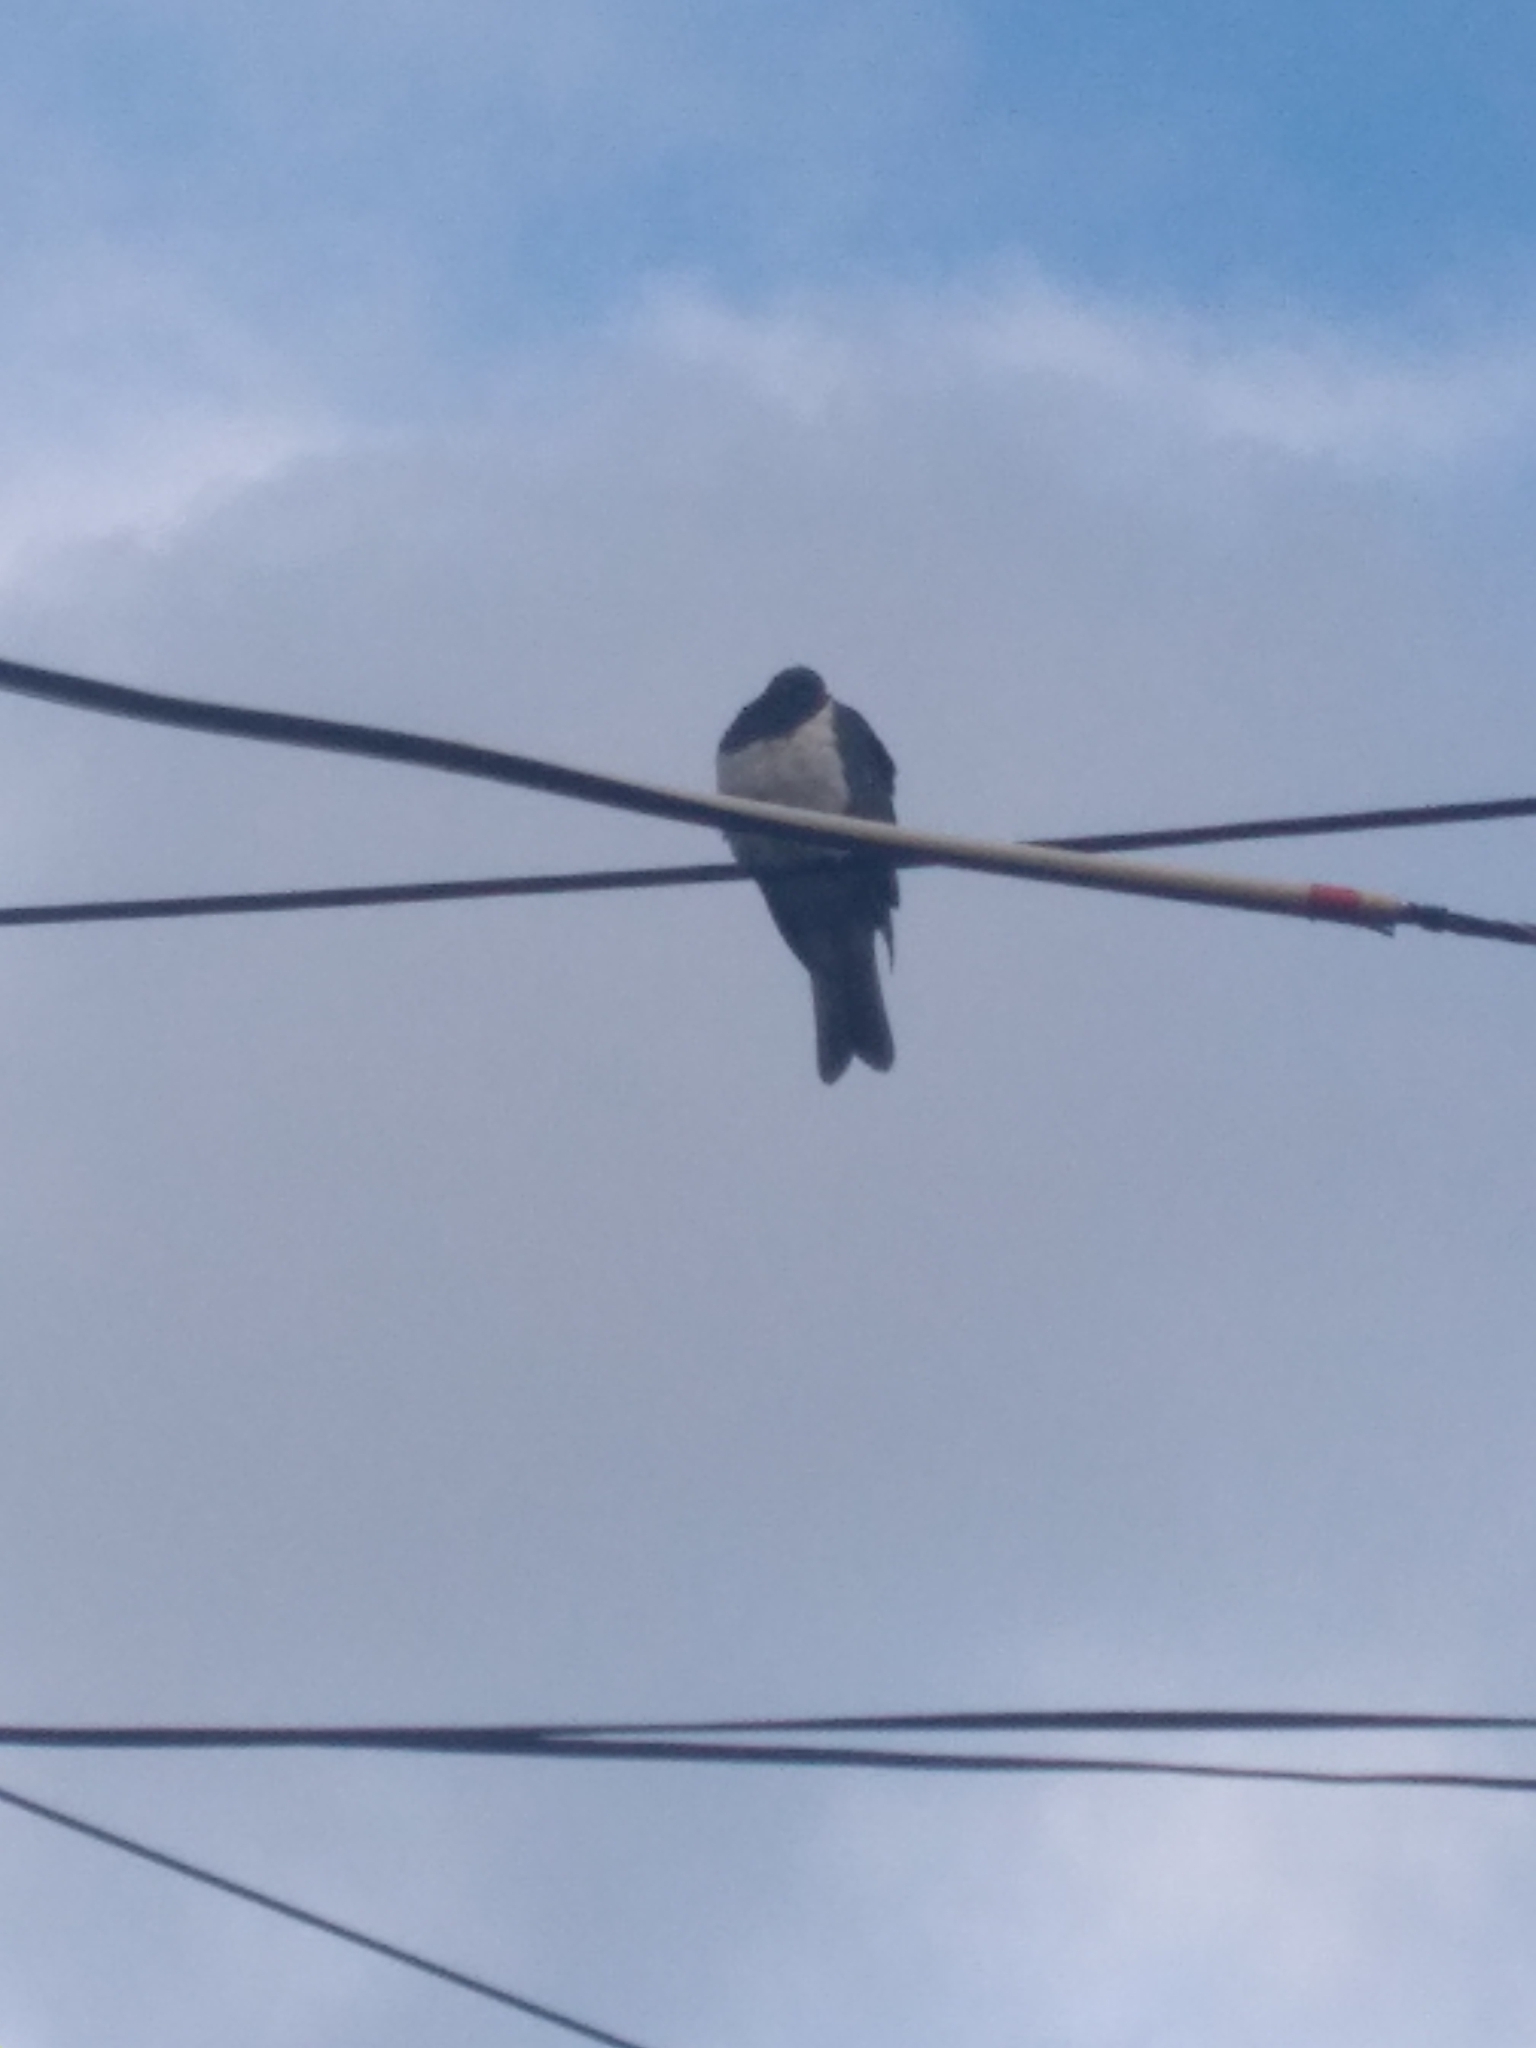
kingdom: Animalia
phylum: Chordata
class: Aves
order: Columbiformes
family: Columbidae
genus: Hemiphaga
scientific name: Hemiphaga novaeseelandiae
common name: New zealand pigeon
